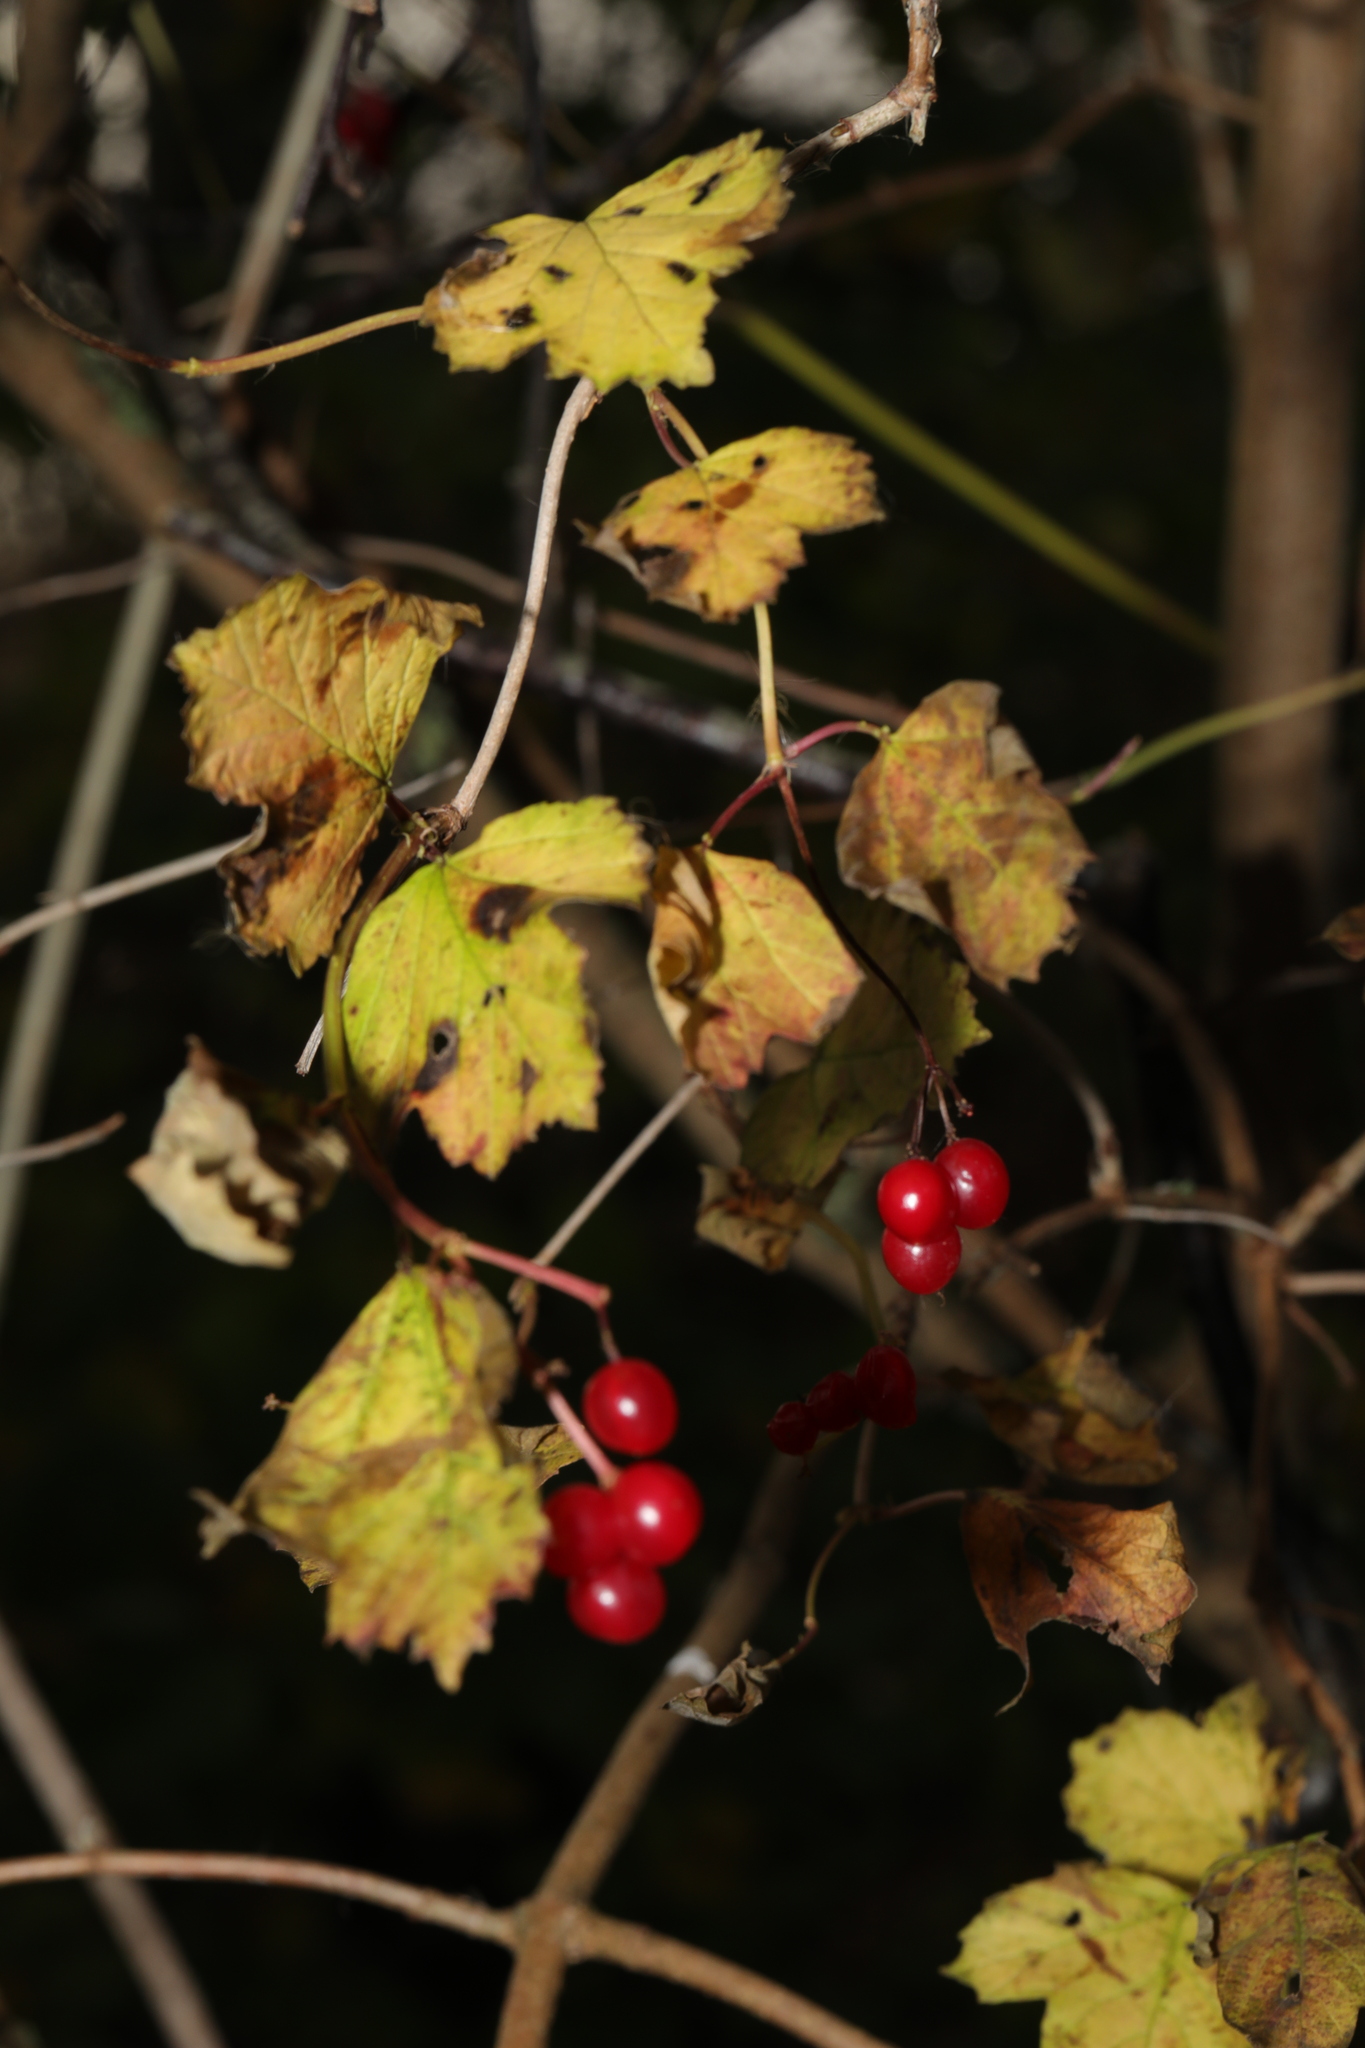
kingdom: Plantae
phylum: Tracheophyta
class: Magnoliopsida
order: Dipsacales
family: Viburnaceae
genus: Viburnum
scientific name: Viburnum opulus
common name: Guelder-rose
